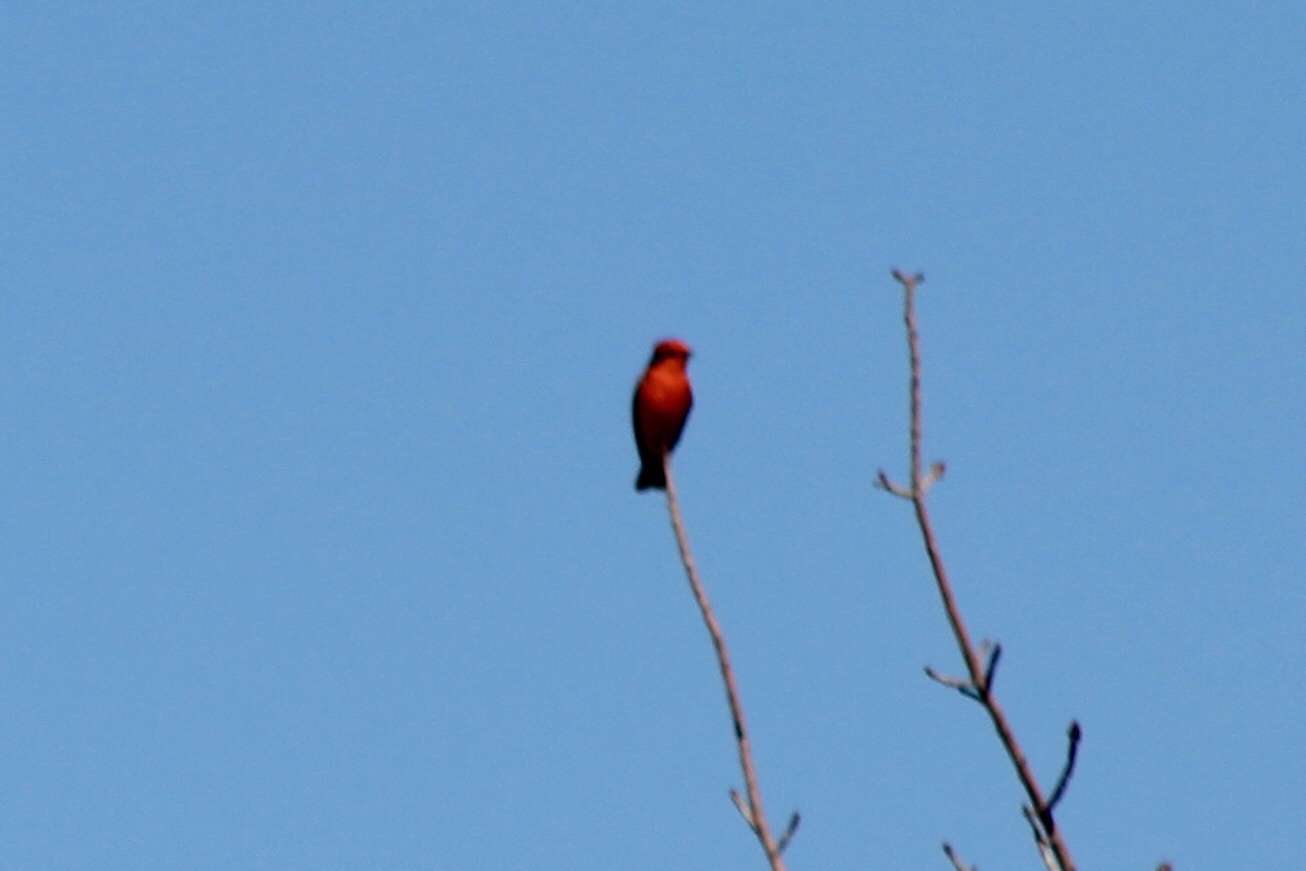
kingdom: Animalia
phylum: Chordata
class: Aves
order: Passeriformes
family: Tyrannidae
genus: Pyrocephalus
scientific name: Pyrocephalus rubinus
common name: Vermilion flycatcher
